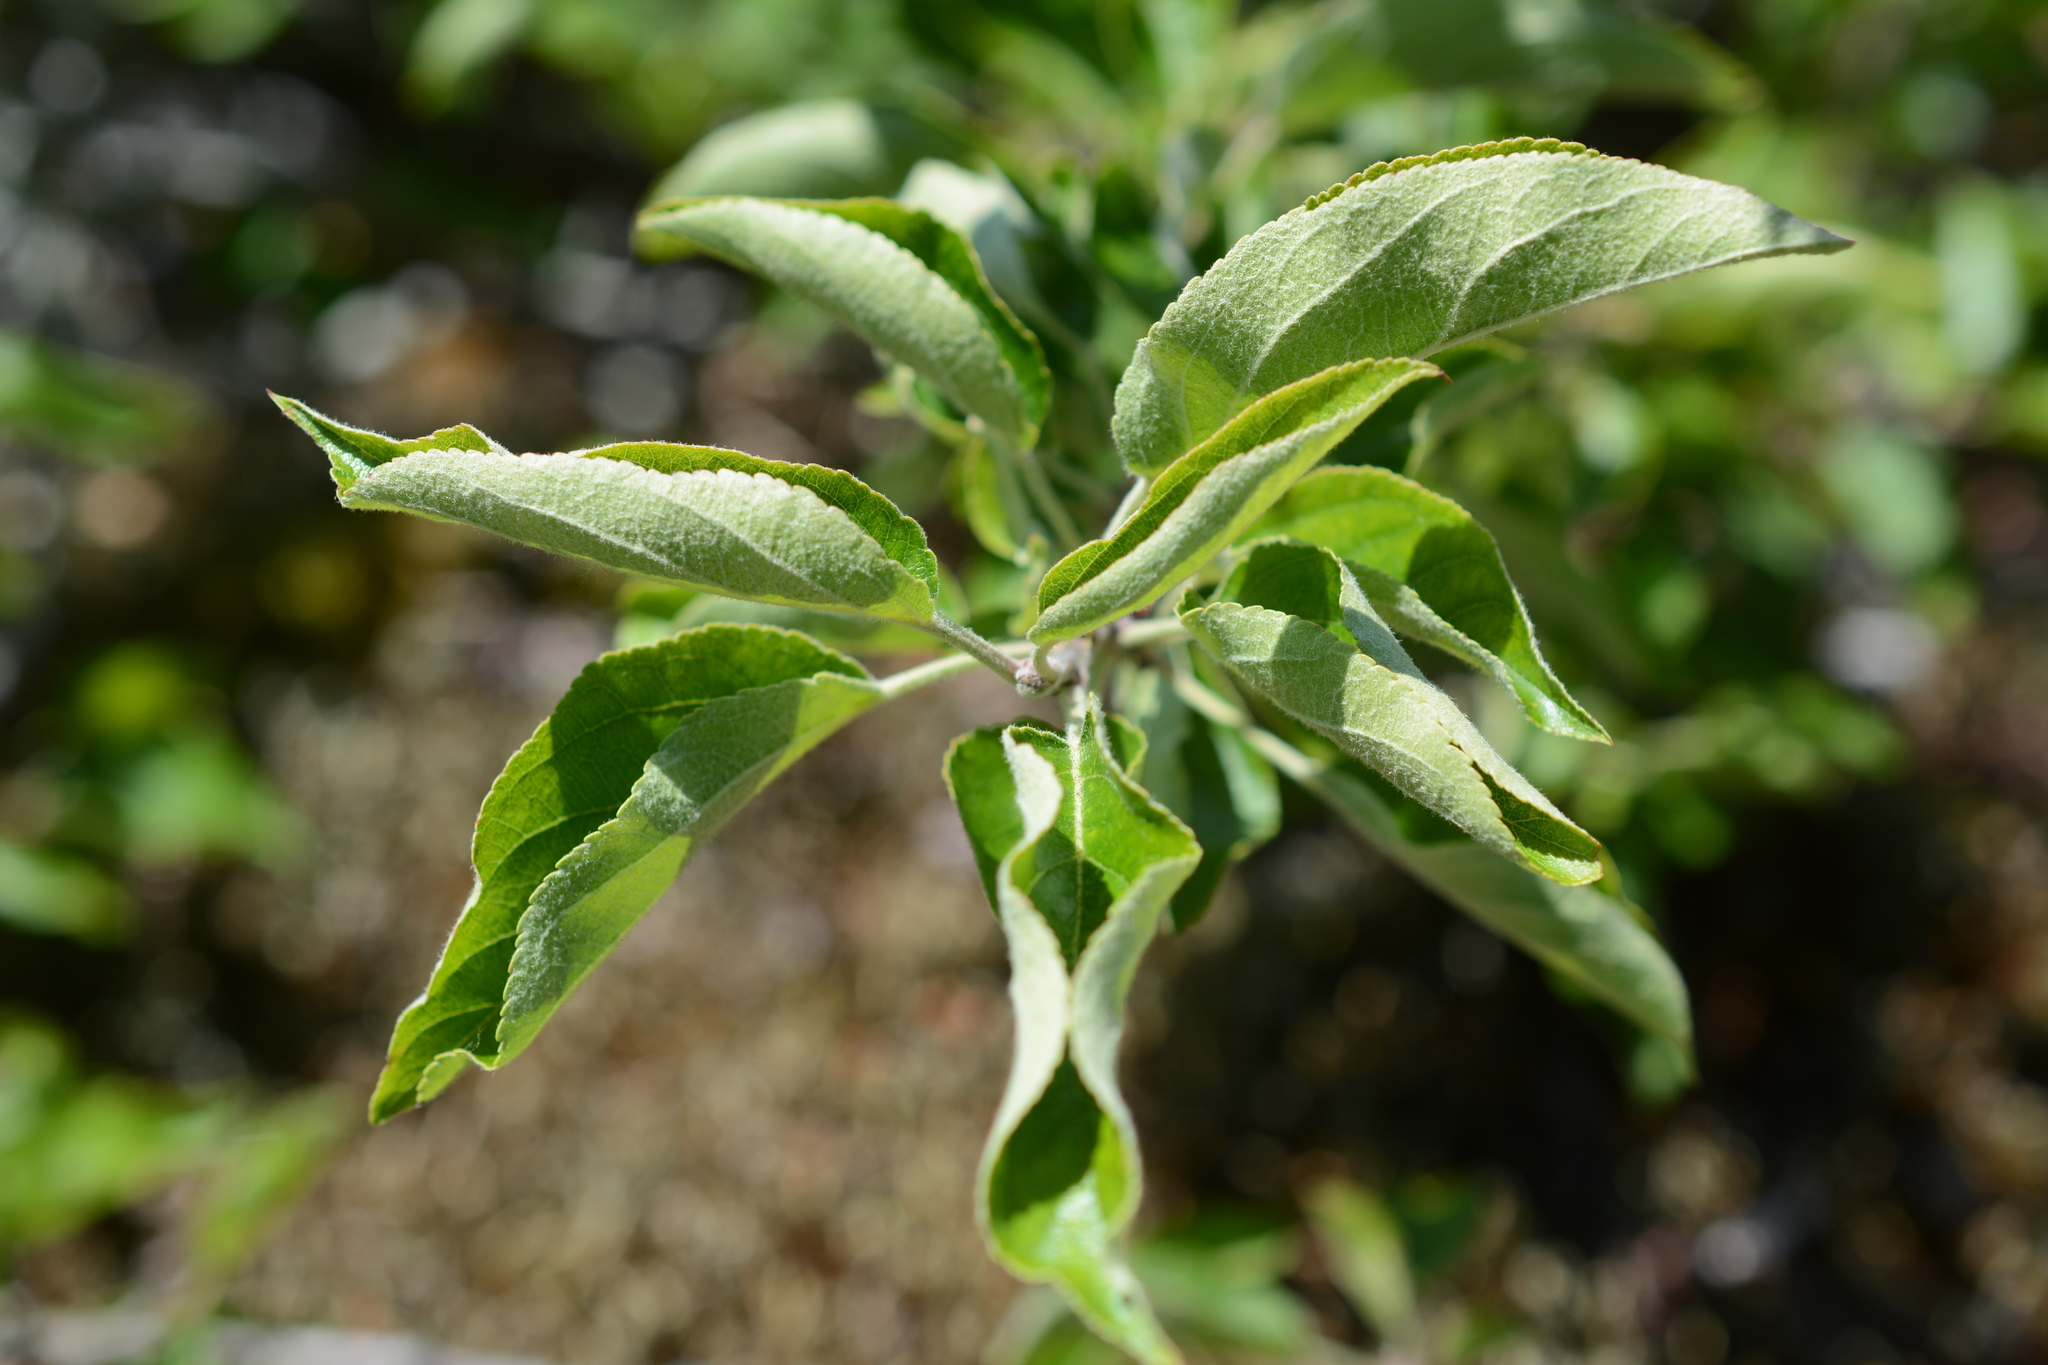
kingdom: Plantae
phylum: Tracheophyta
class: Magnoliopsida
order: Rosales
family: Rosaceae
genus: Malus
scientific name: Malus domestica
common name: Apple
